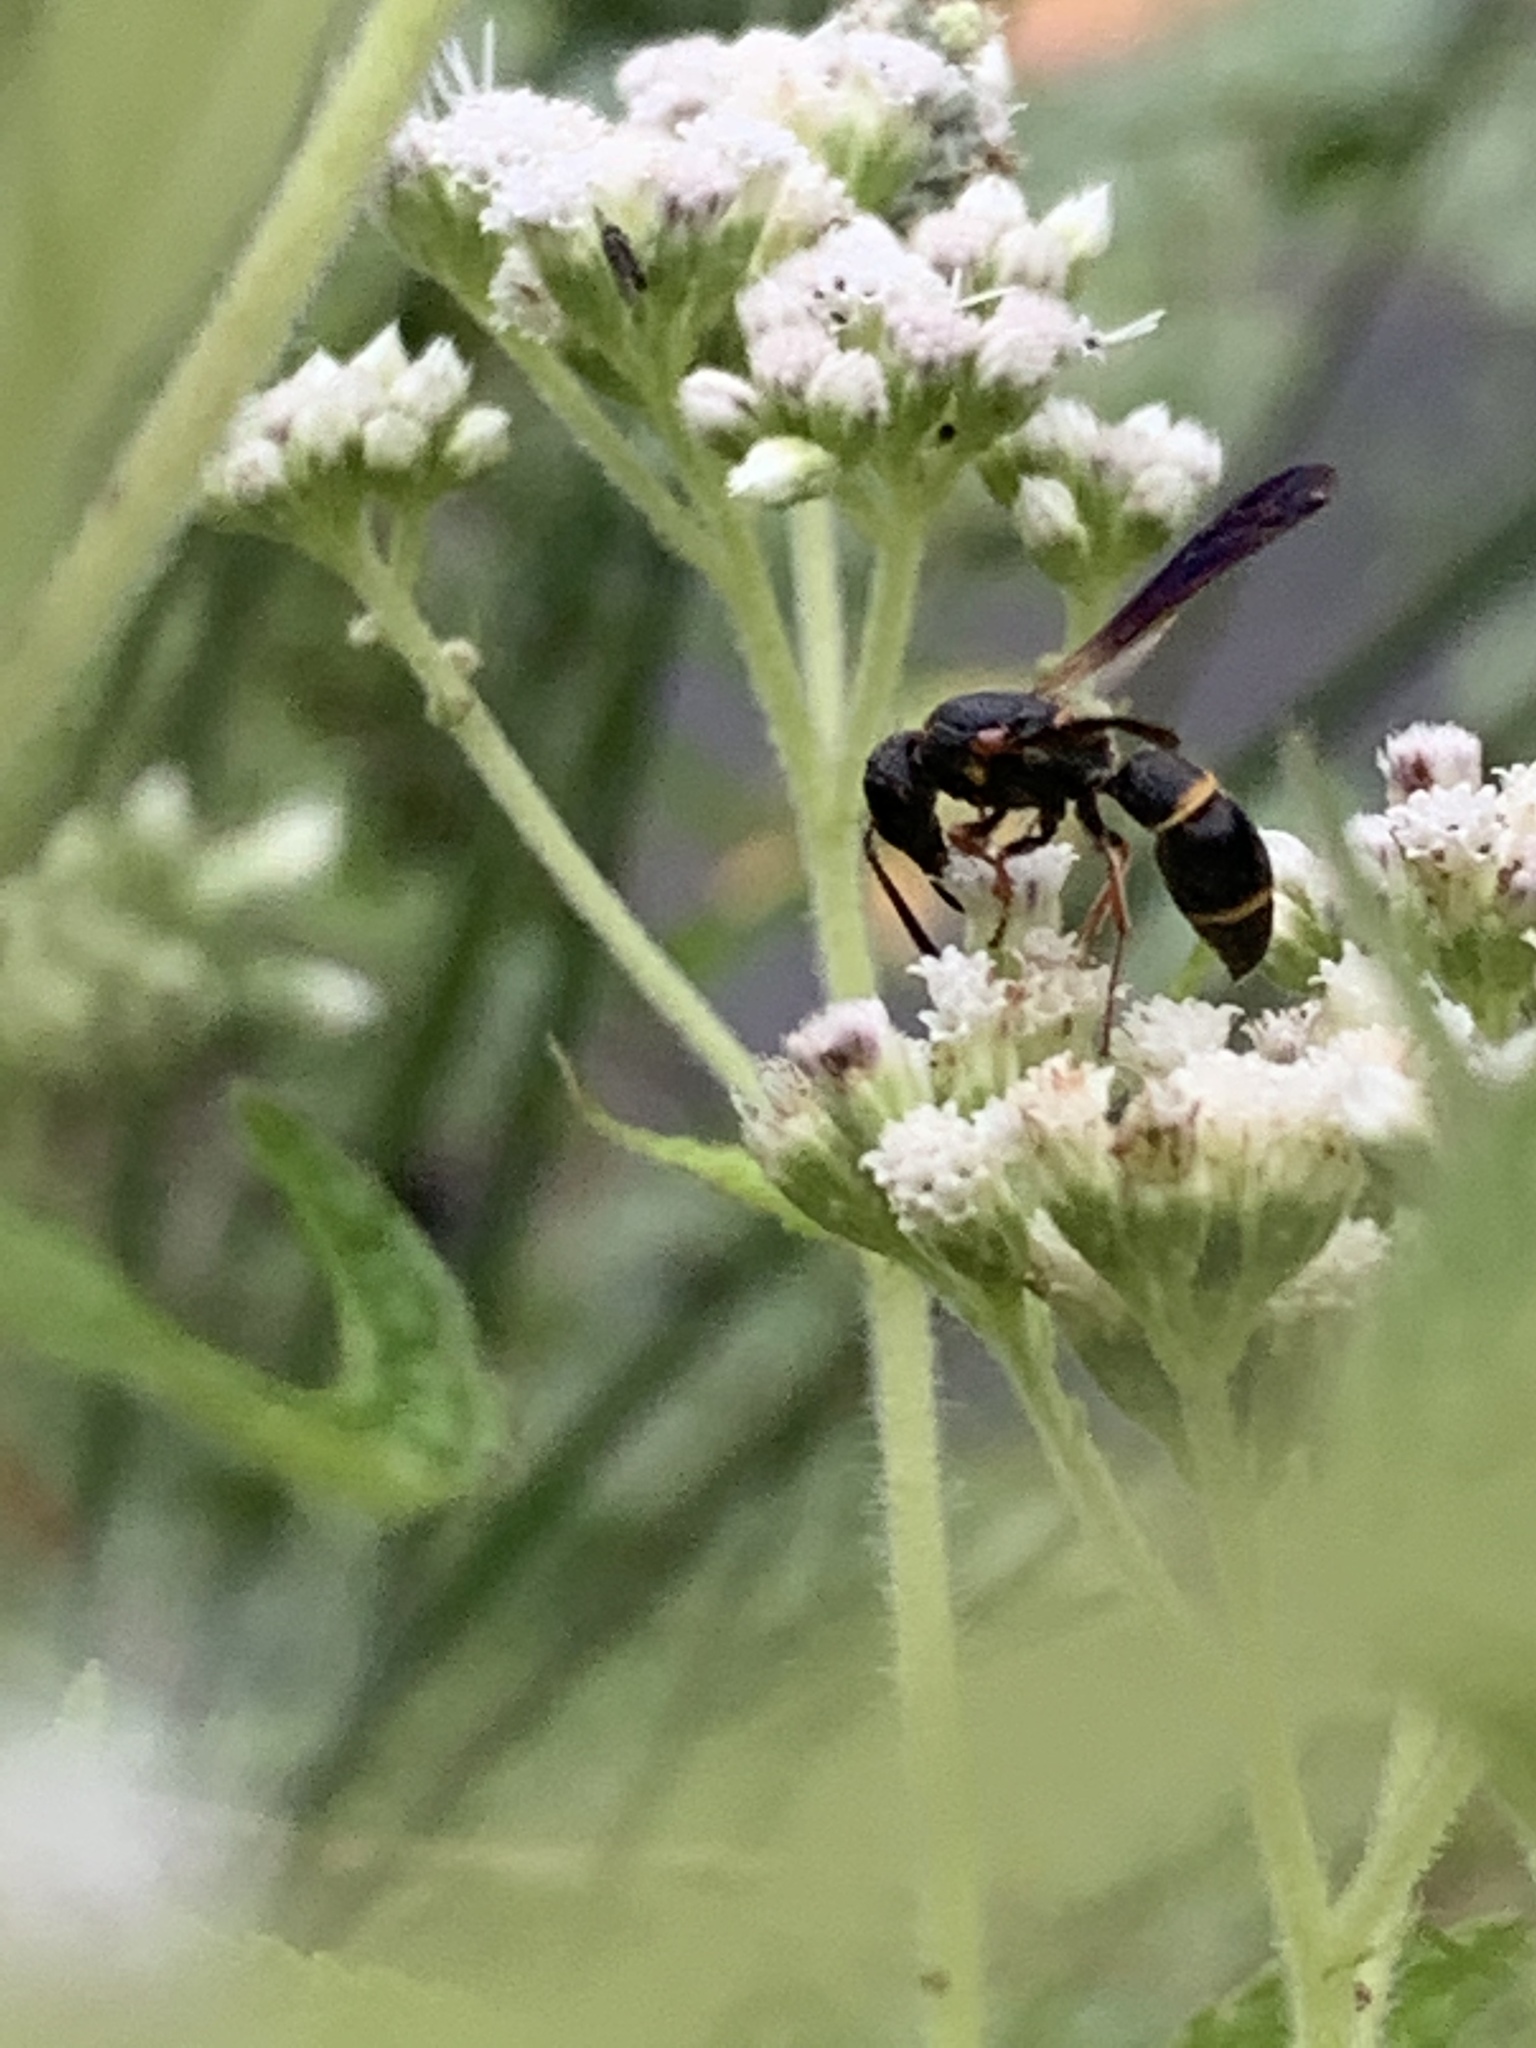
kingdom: Animalia
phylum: Arthropoda
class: Insecta
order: Hymenoptera
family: Eumenidae
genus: Parancistrocerus
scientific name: Parancistrocerus histrio
